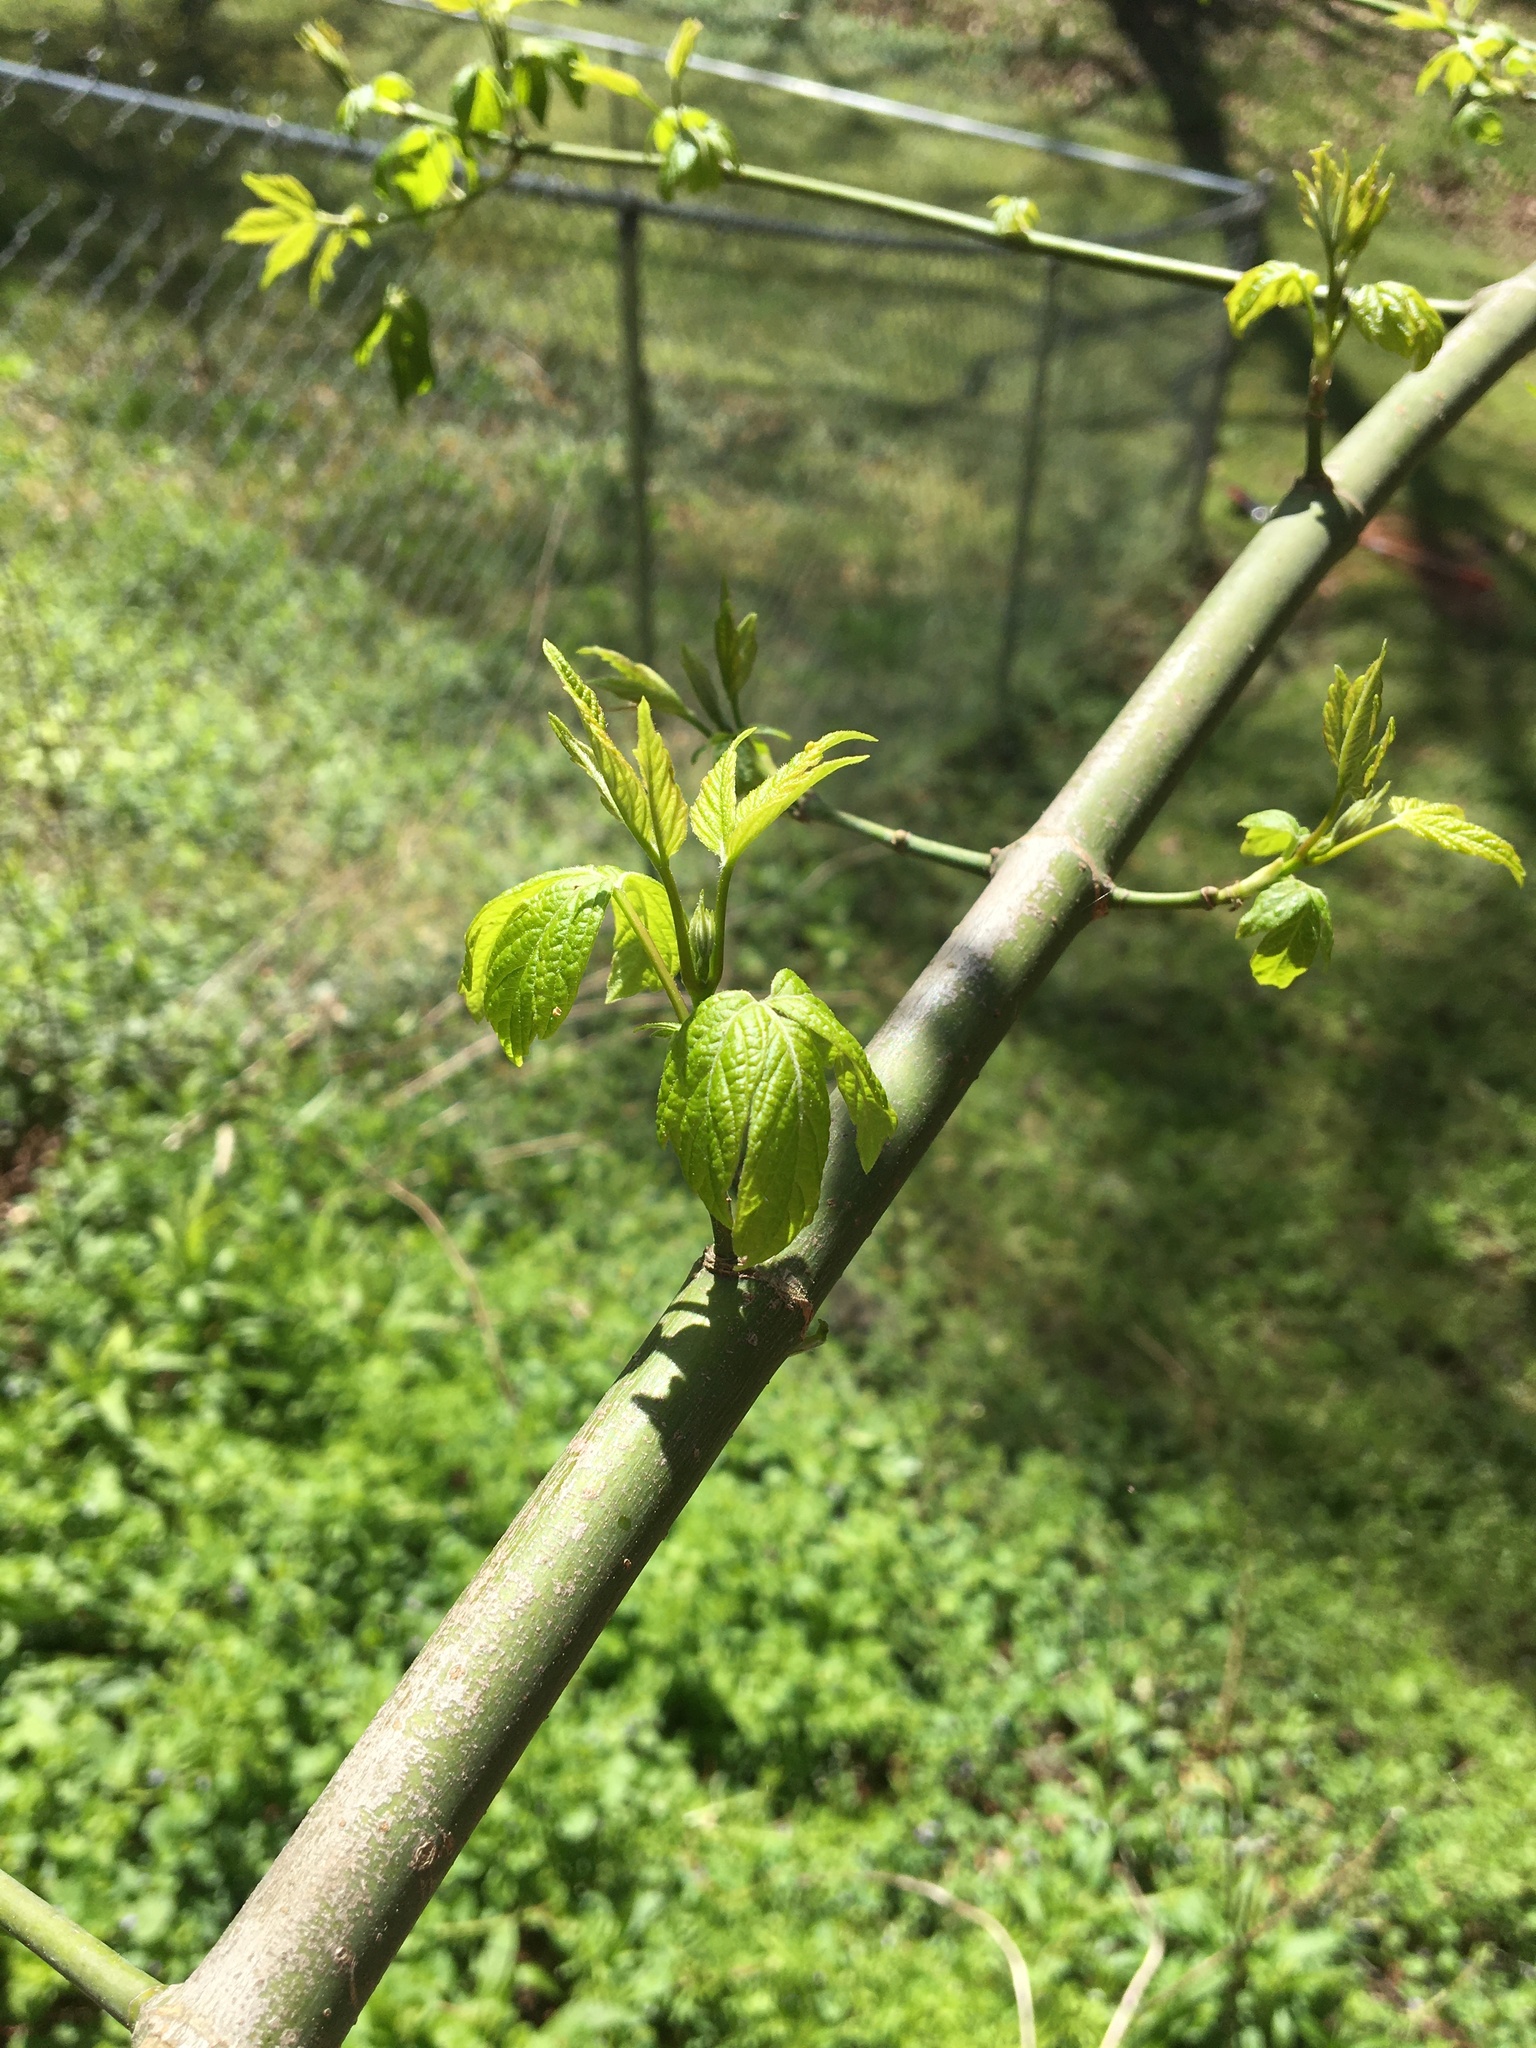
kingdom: Plantae
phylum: Tracheophyta
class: Magnoliopsida
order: Sapindales
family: Sapindaceae
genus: Acer
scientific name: Acer negundo
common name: Ashleaf maple
